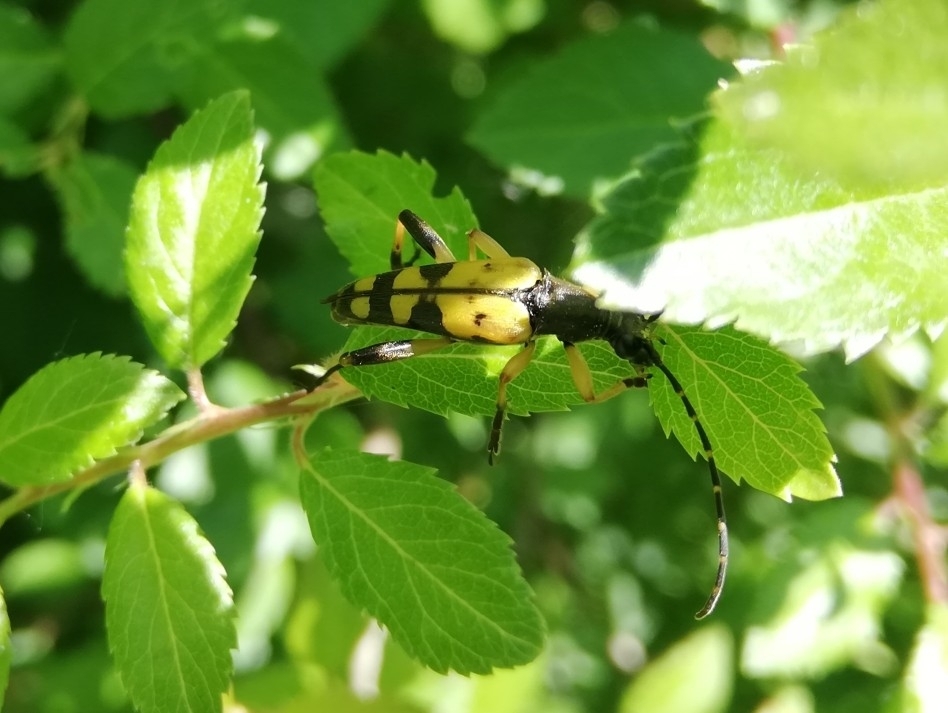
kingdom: Animalia
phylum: Arthropoda
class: Insecta
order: Coleoptera
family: Cerambycidae
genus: Rutpela
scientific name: Rutpela maculata
